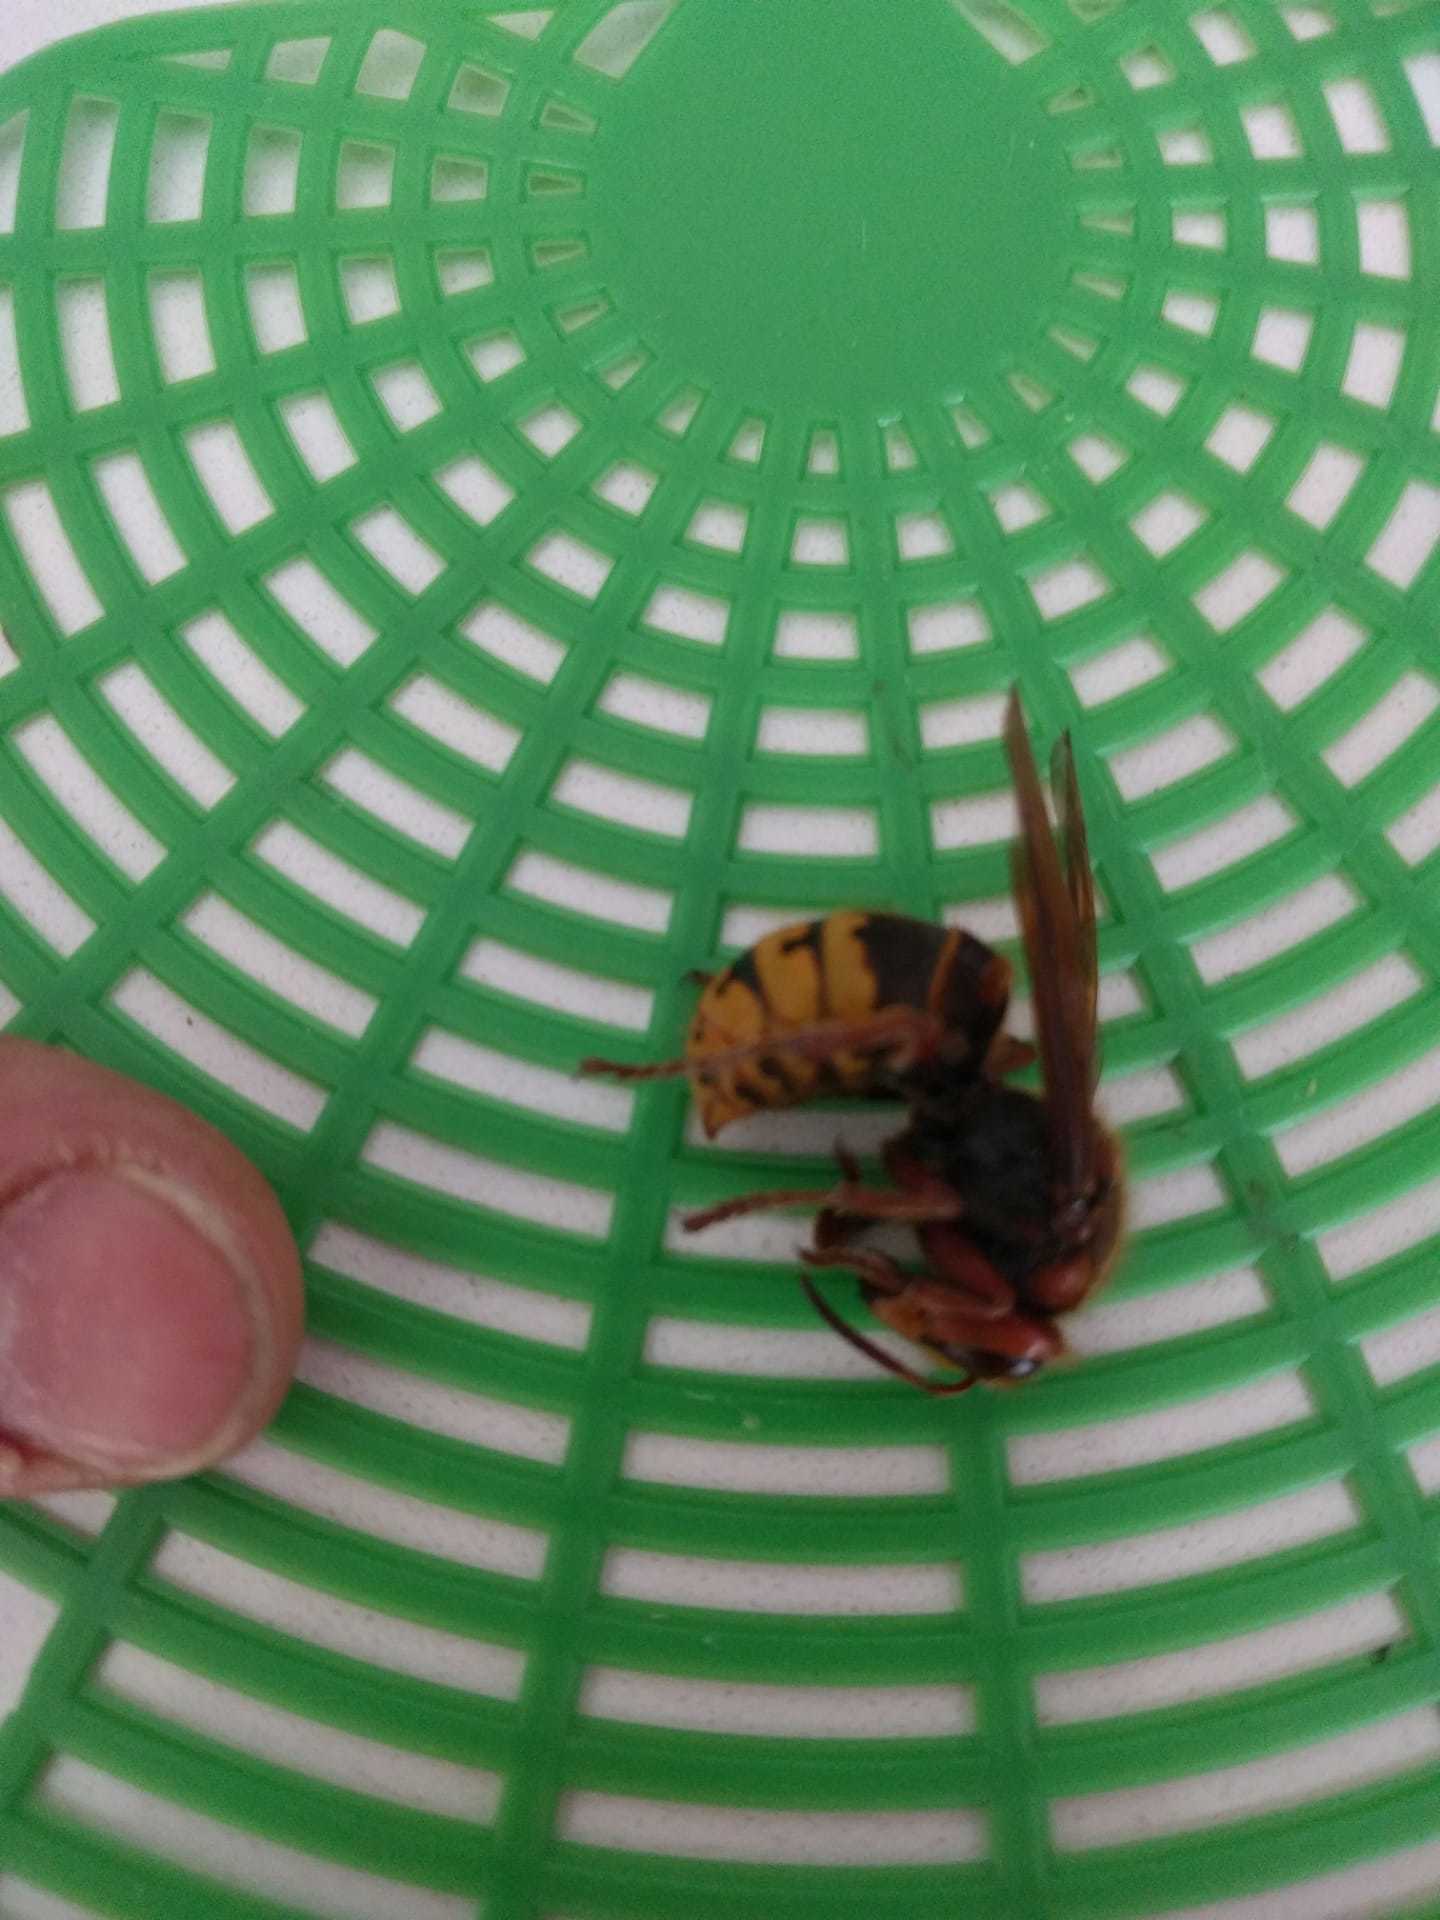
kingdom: Animalia
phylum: Arthropoda
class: Insecta
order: Hymenoptera
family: Vespidae
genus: Vespa
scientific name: Vespa crabro
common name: Hornet
